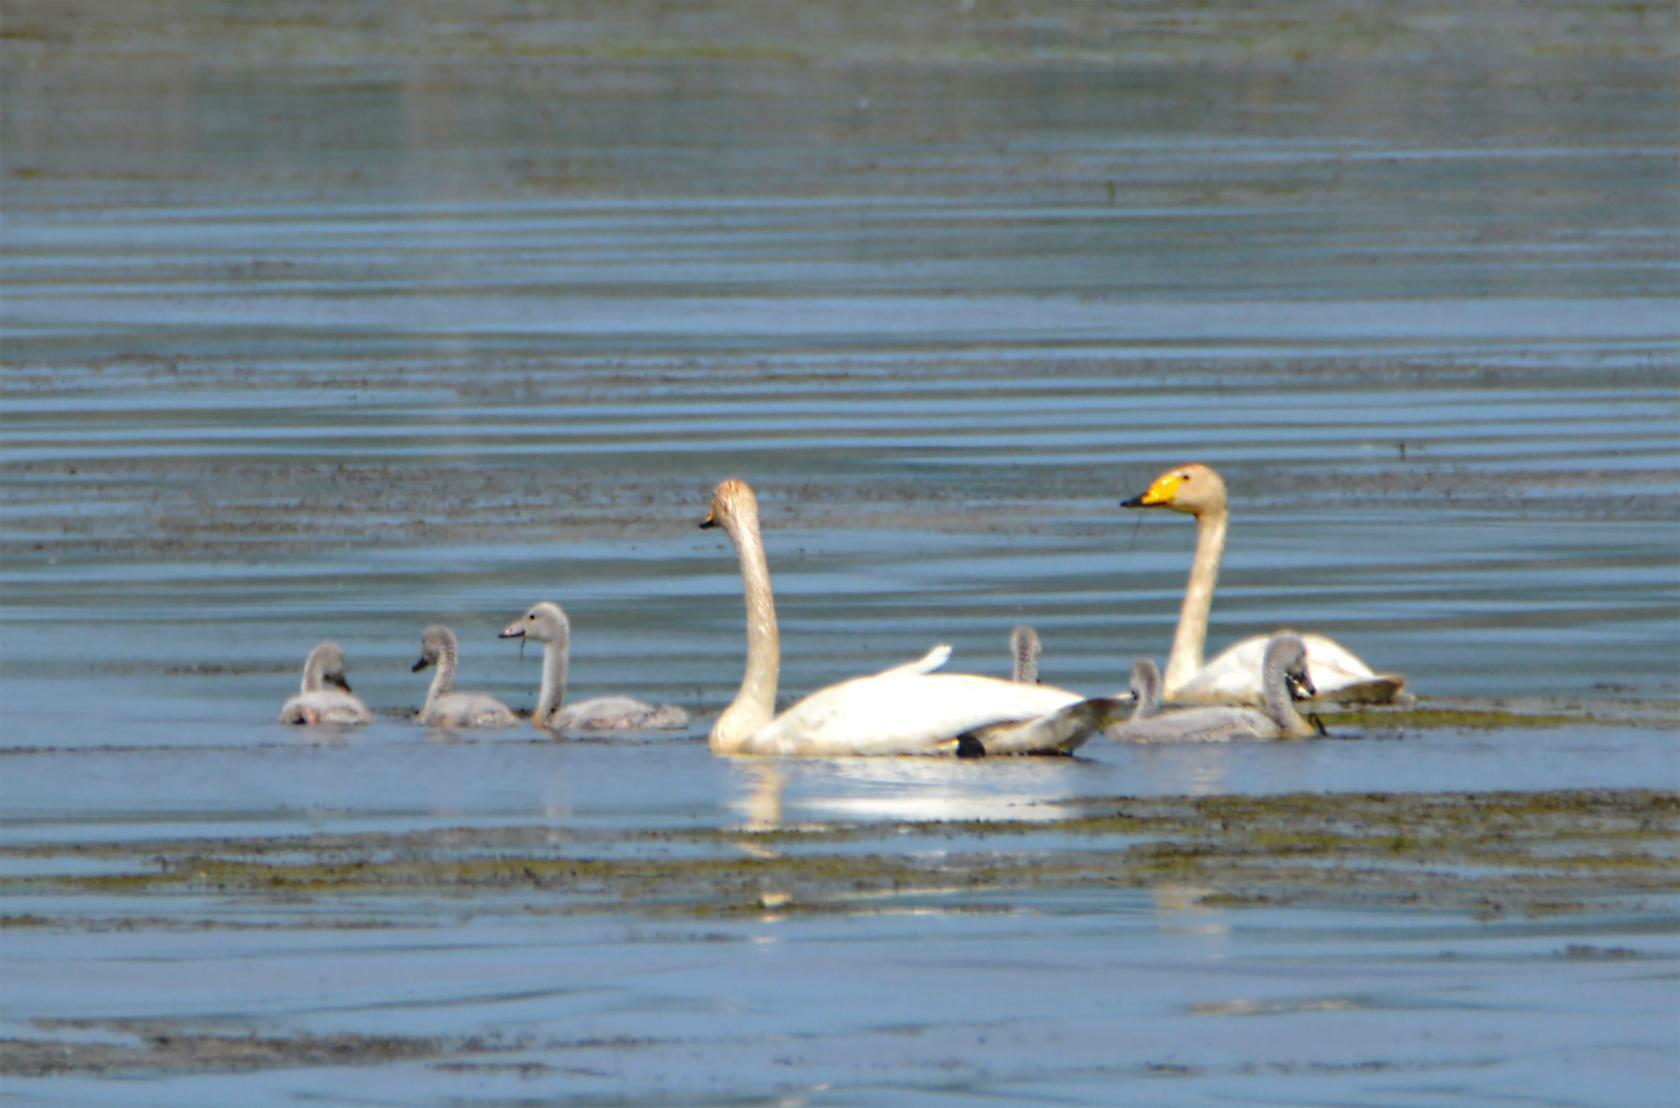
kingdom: Animalia
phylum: Chordata
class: Aves
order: Anseriformes
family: Anatidae
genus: Cygnus
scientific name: Cygnus cygnus
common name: Whooper swan
